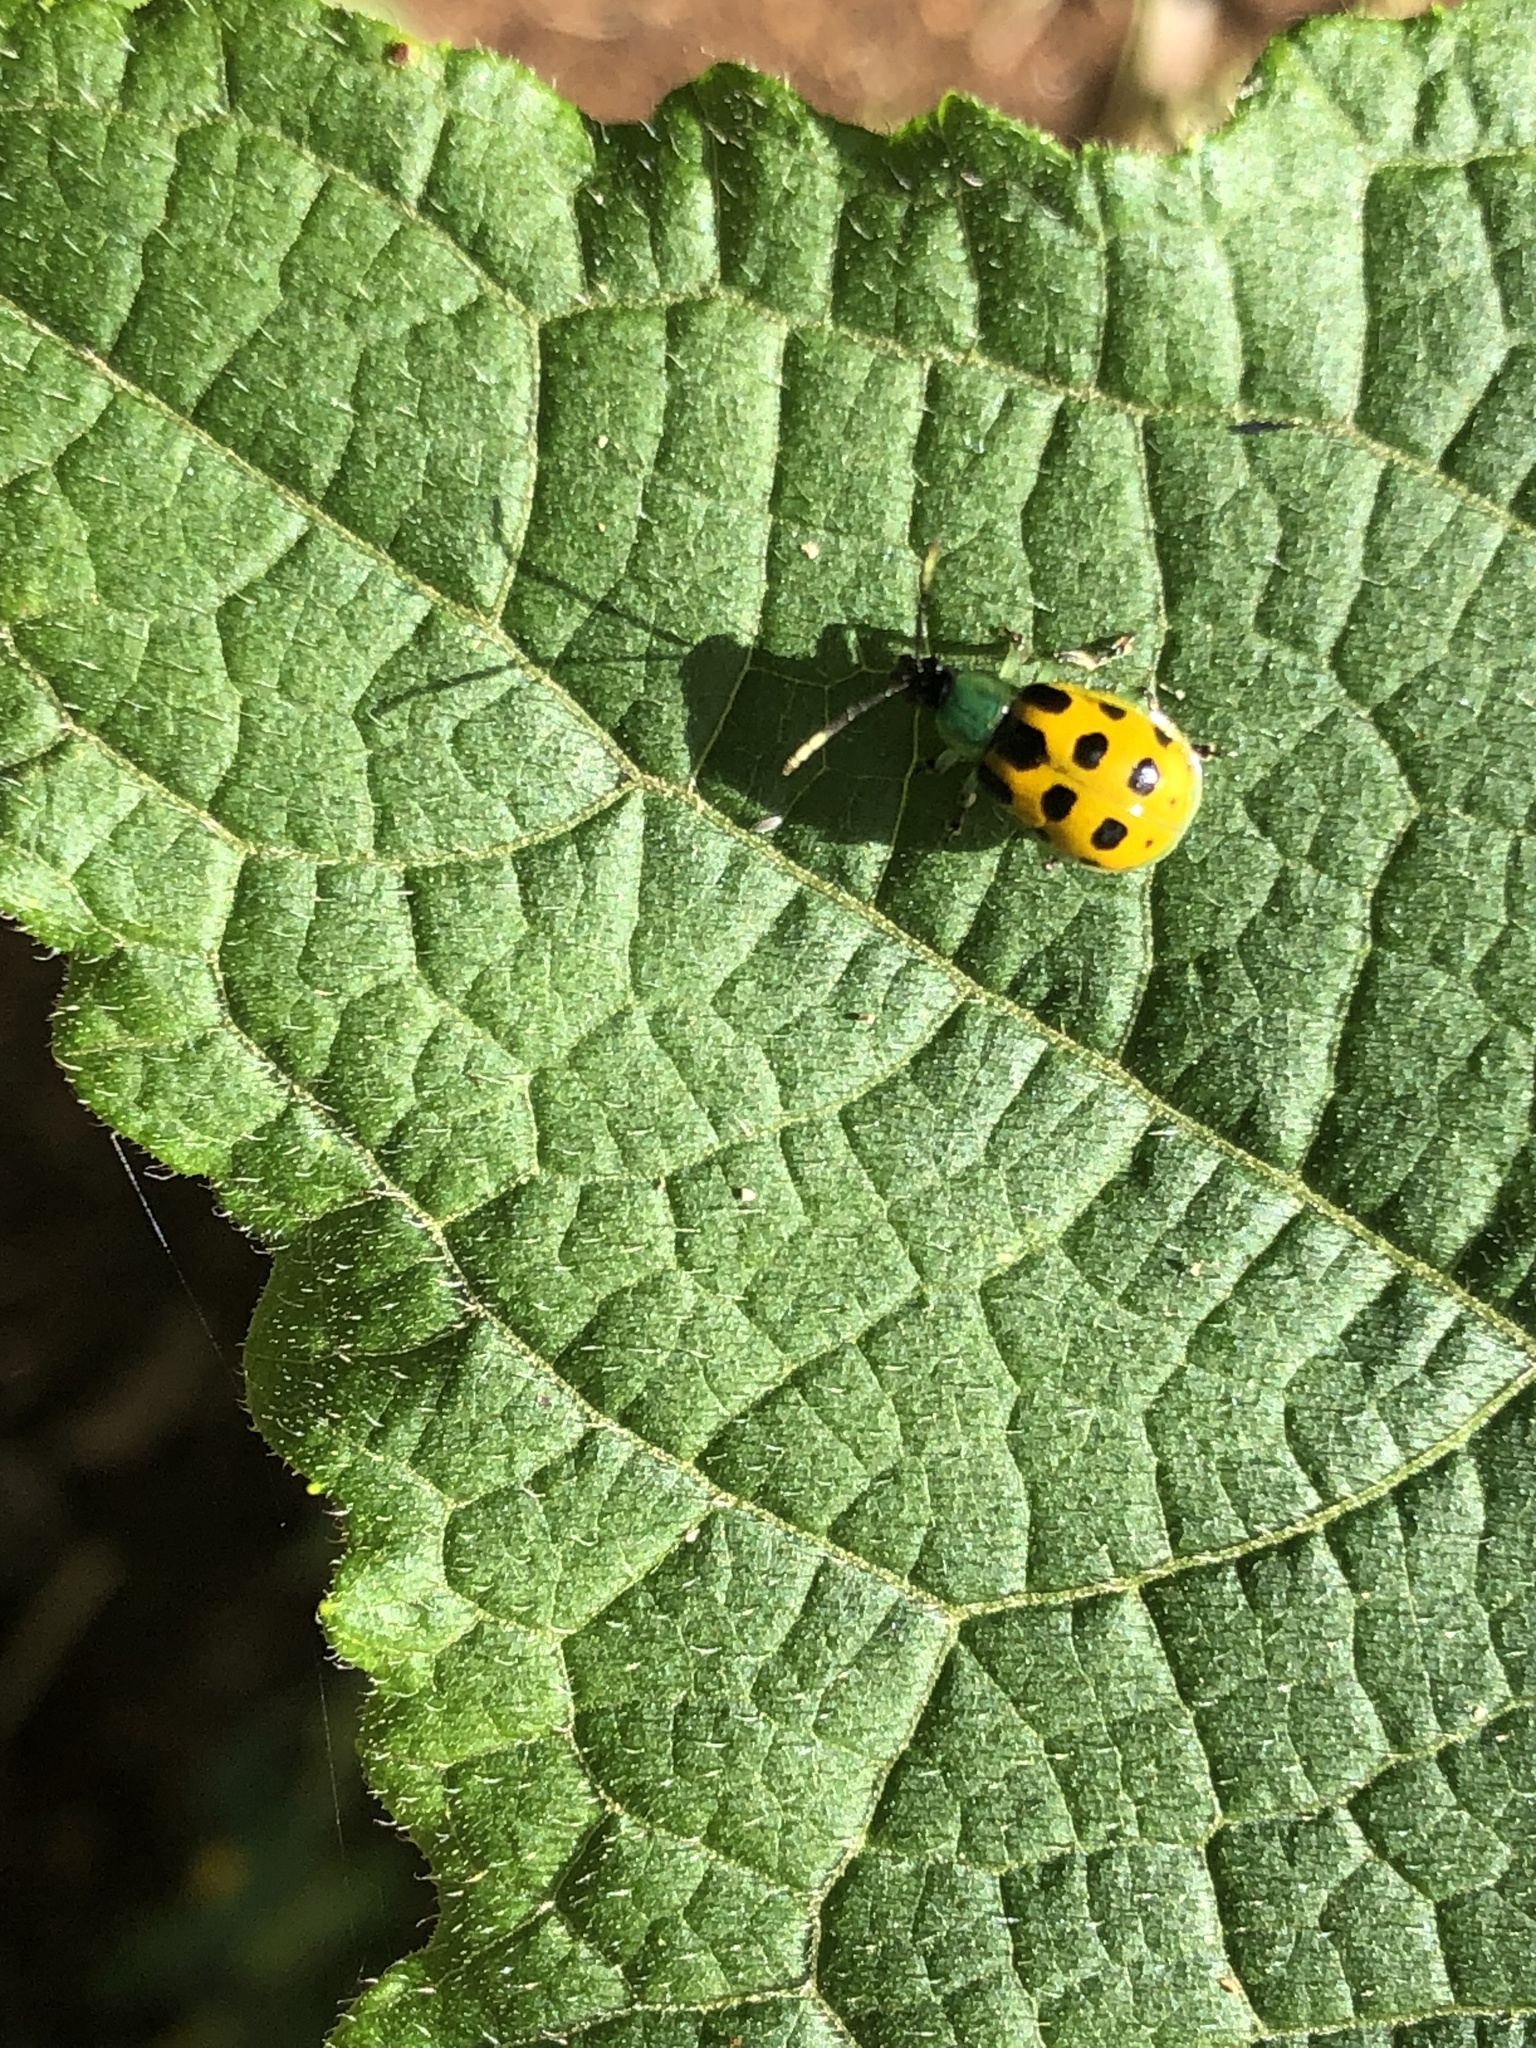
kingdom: Animalia
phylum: Arthropoda
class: Insecta
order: Coleoptera
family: Chrysomelidae
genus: Diabrotica
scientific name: Diabrotica limitata
